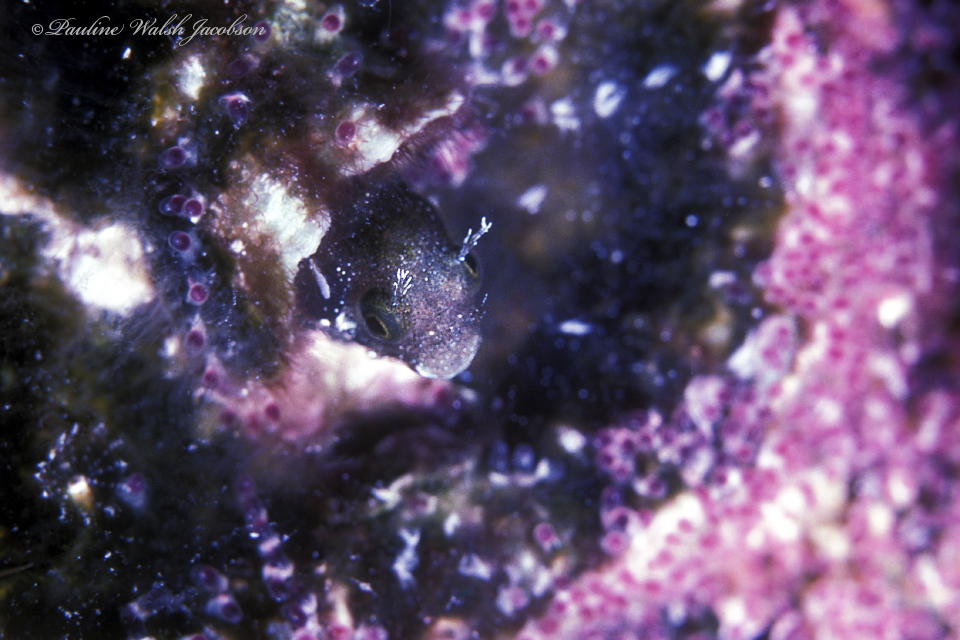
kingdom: Animalia
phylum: Chordata
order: Perciformes
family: Chaenopsidae
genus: Acanthemblemaria
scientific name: Acanthemblemaria spinosa
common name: Spinyhead blenny
